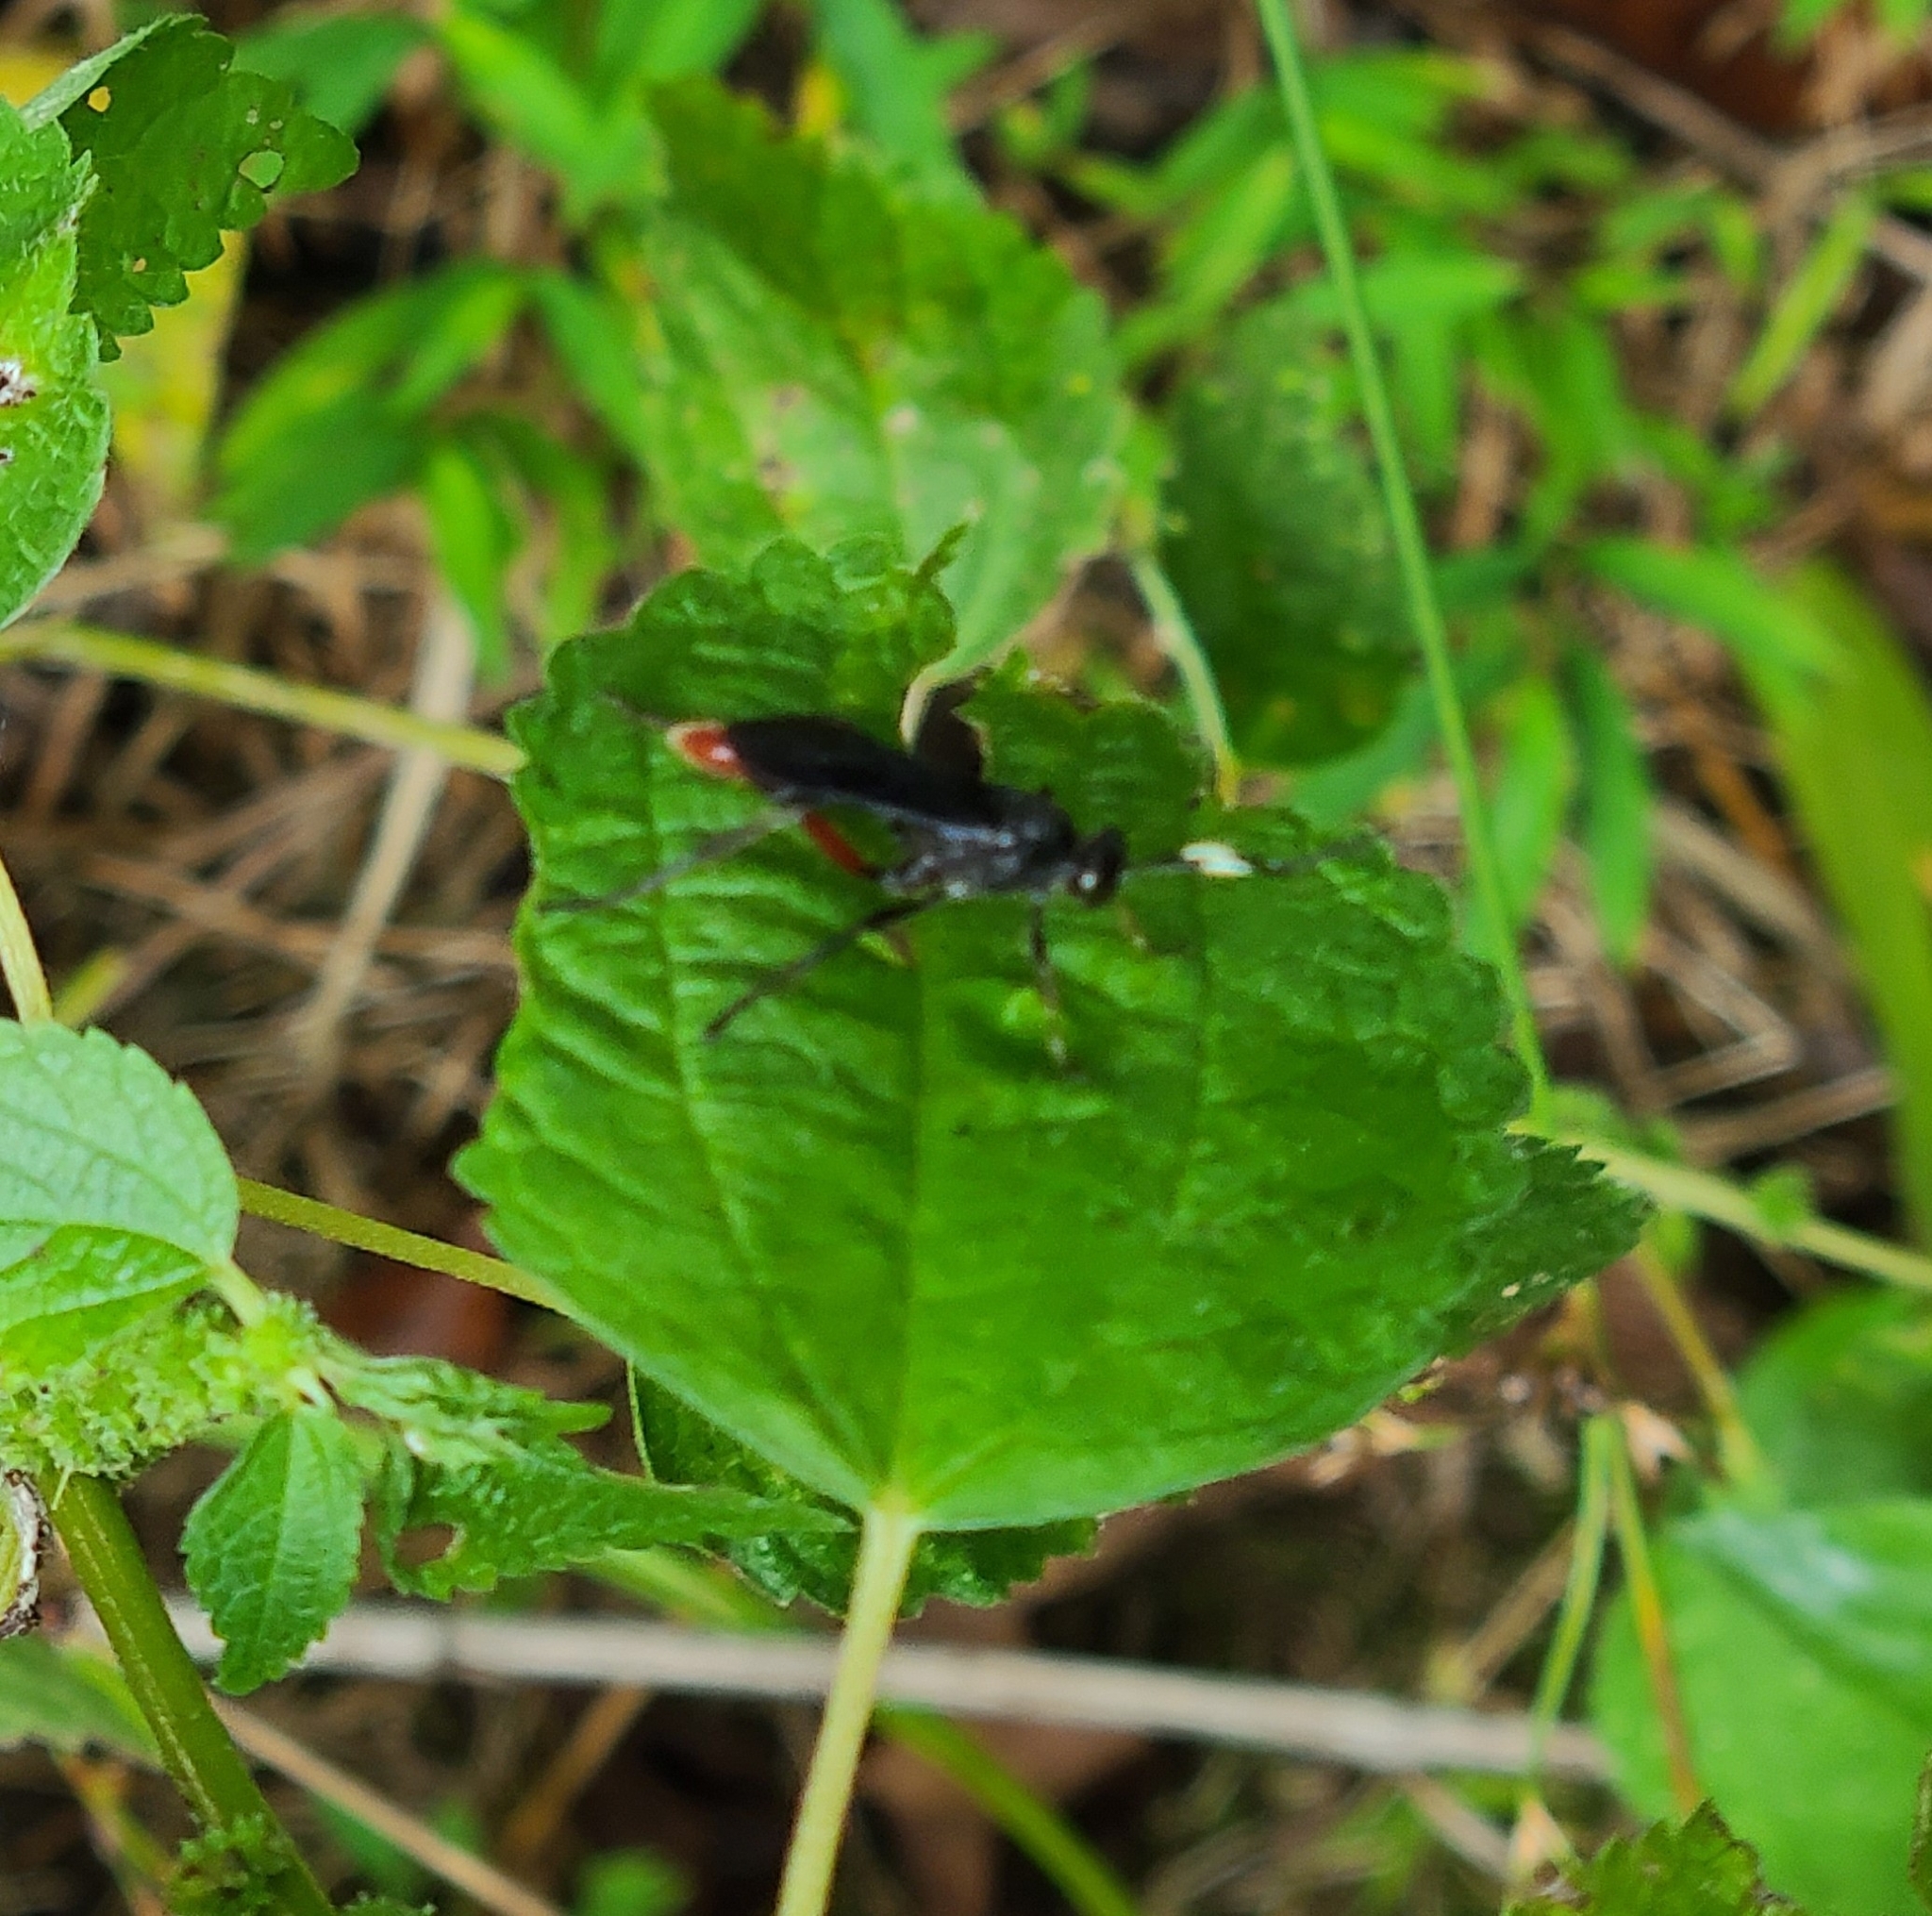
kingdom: Animalia
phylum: Arthropoda
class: Insecta
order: Hymenoptera
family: Ichneumonidae
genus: Limonethe
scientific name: Limonethe maurator
